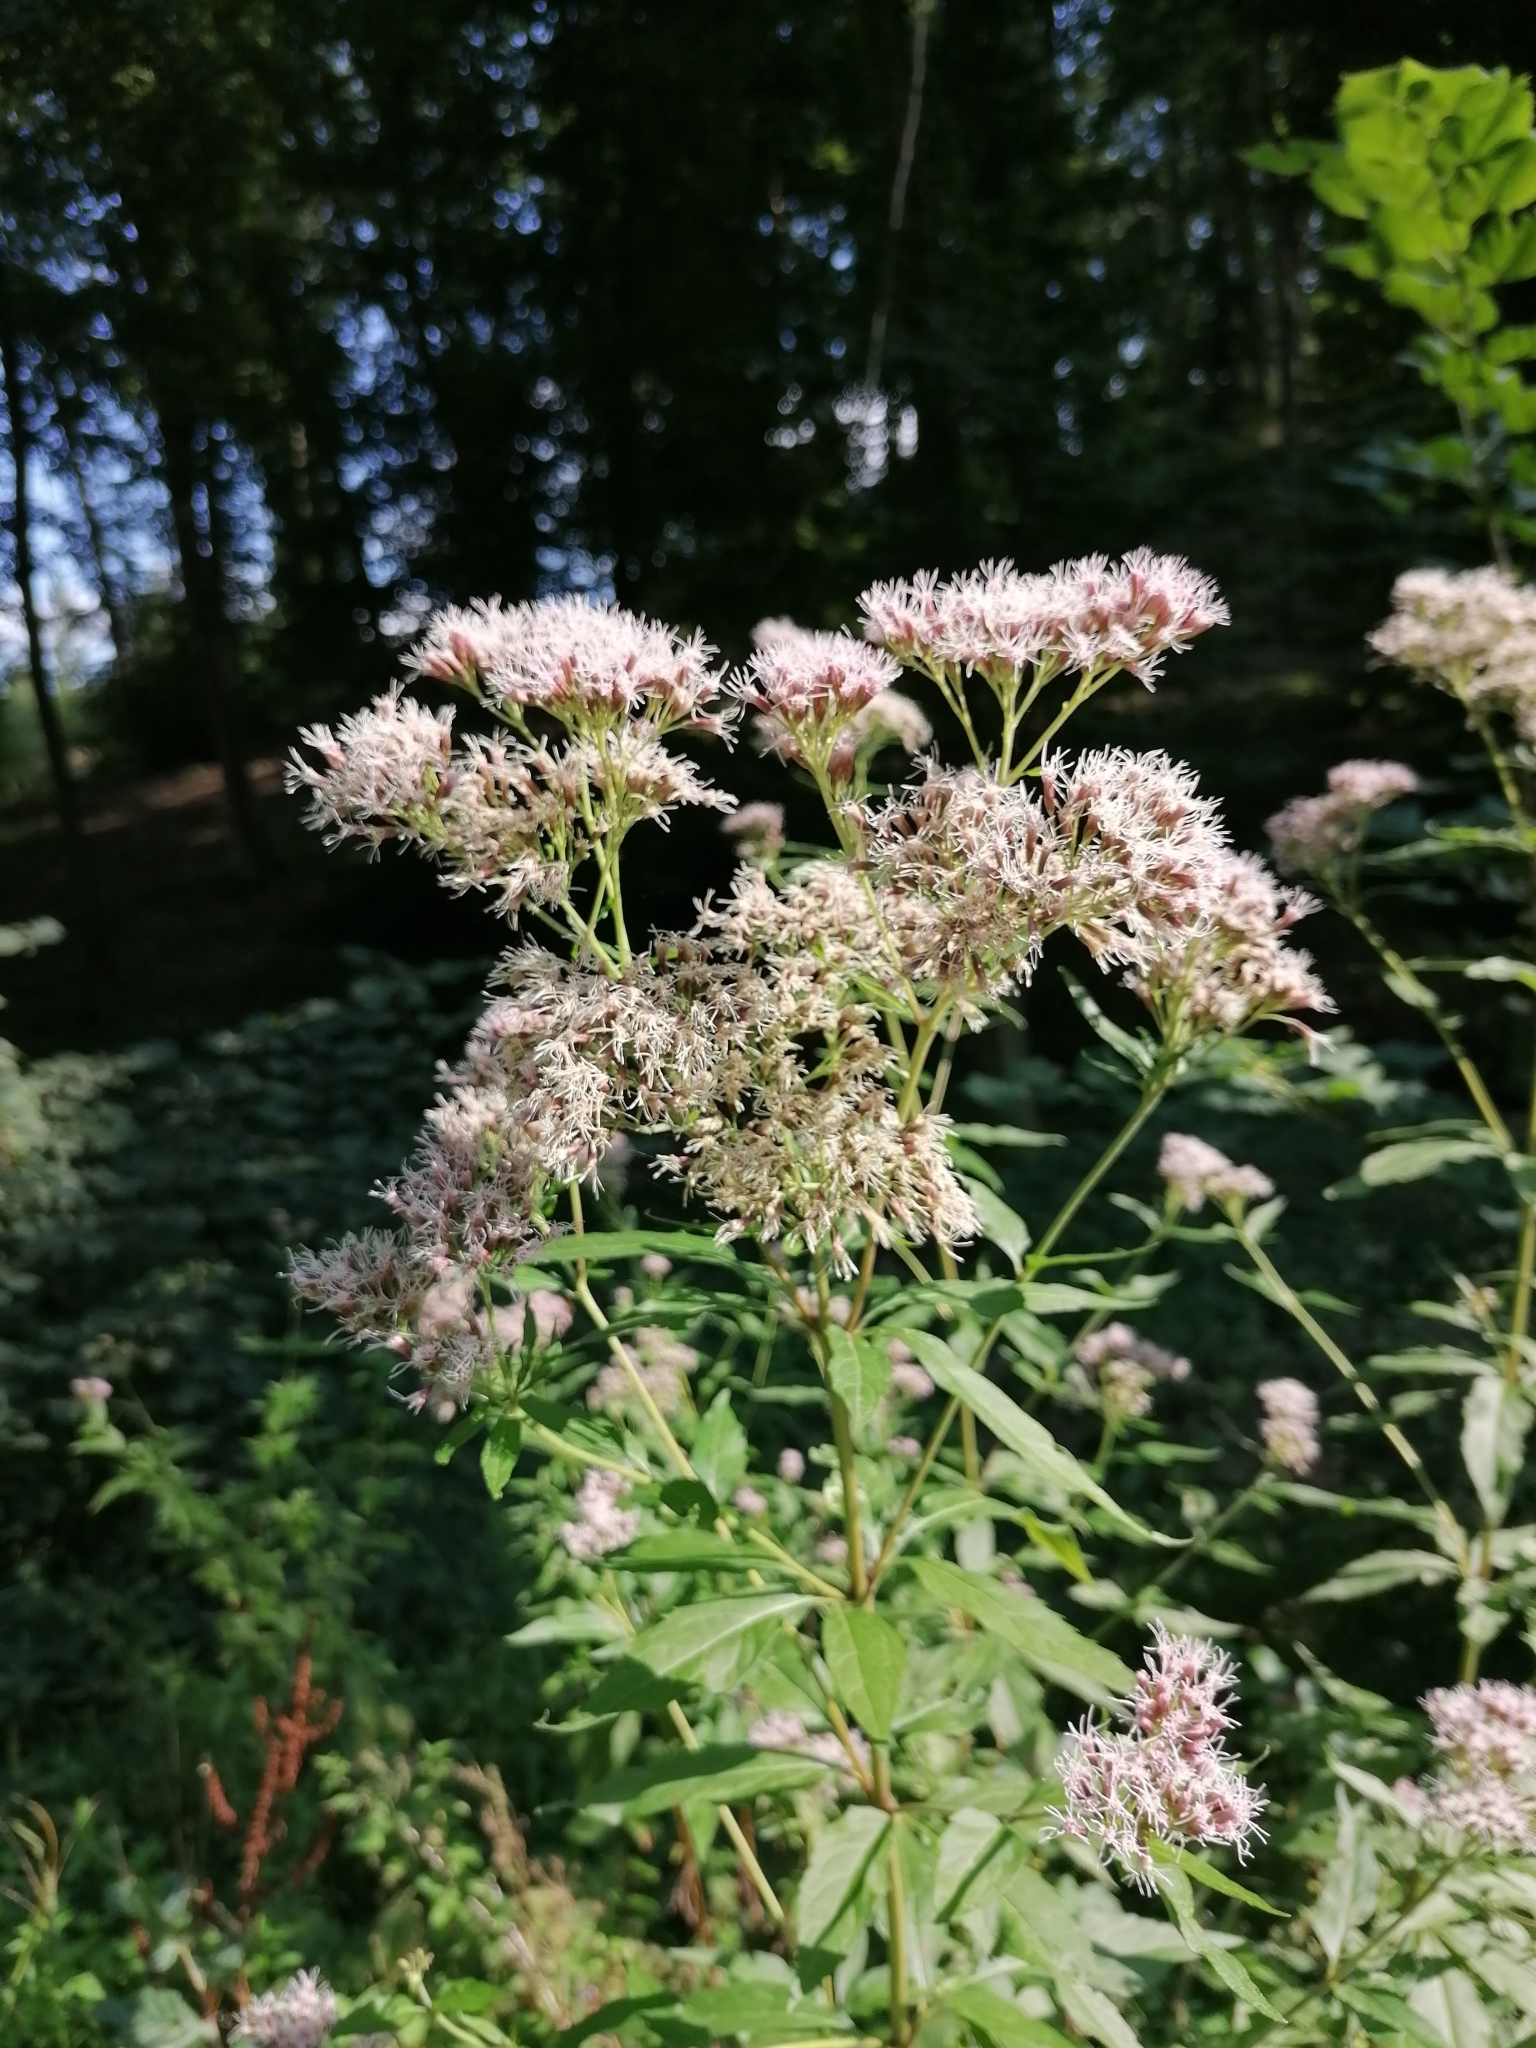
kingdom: Plantae
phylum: Tracheophyta
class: Magnoliopsida
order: Asterales
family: Asteraceae
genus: Eupatorium
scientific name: Eupatorium cannabinum
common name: Hemp-agrimony
